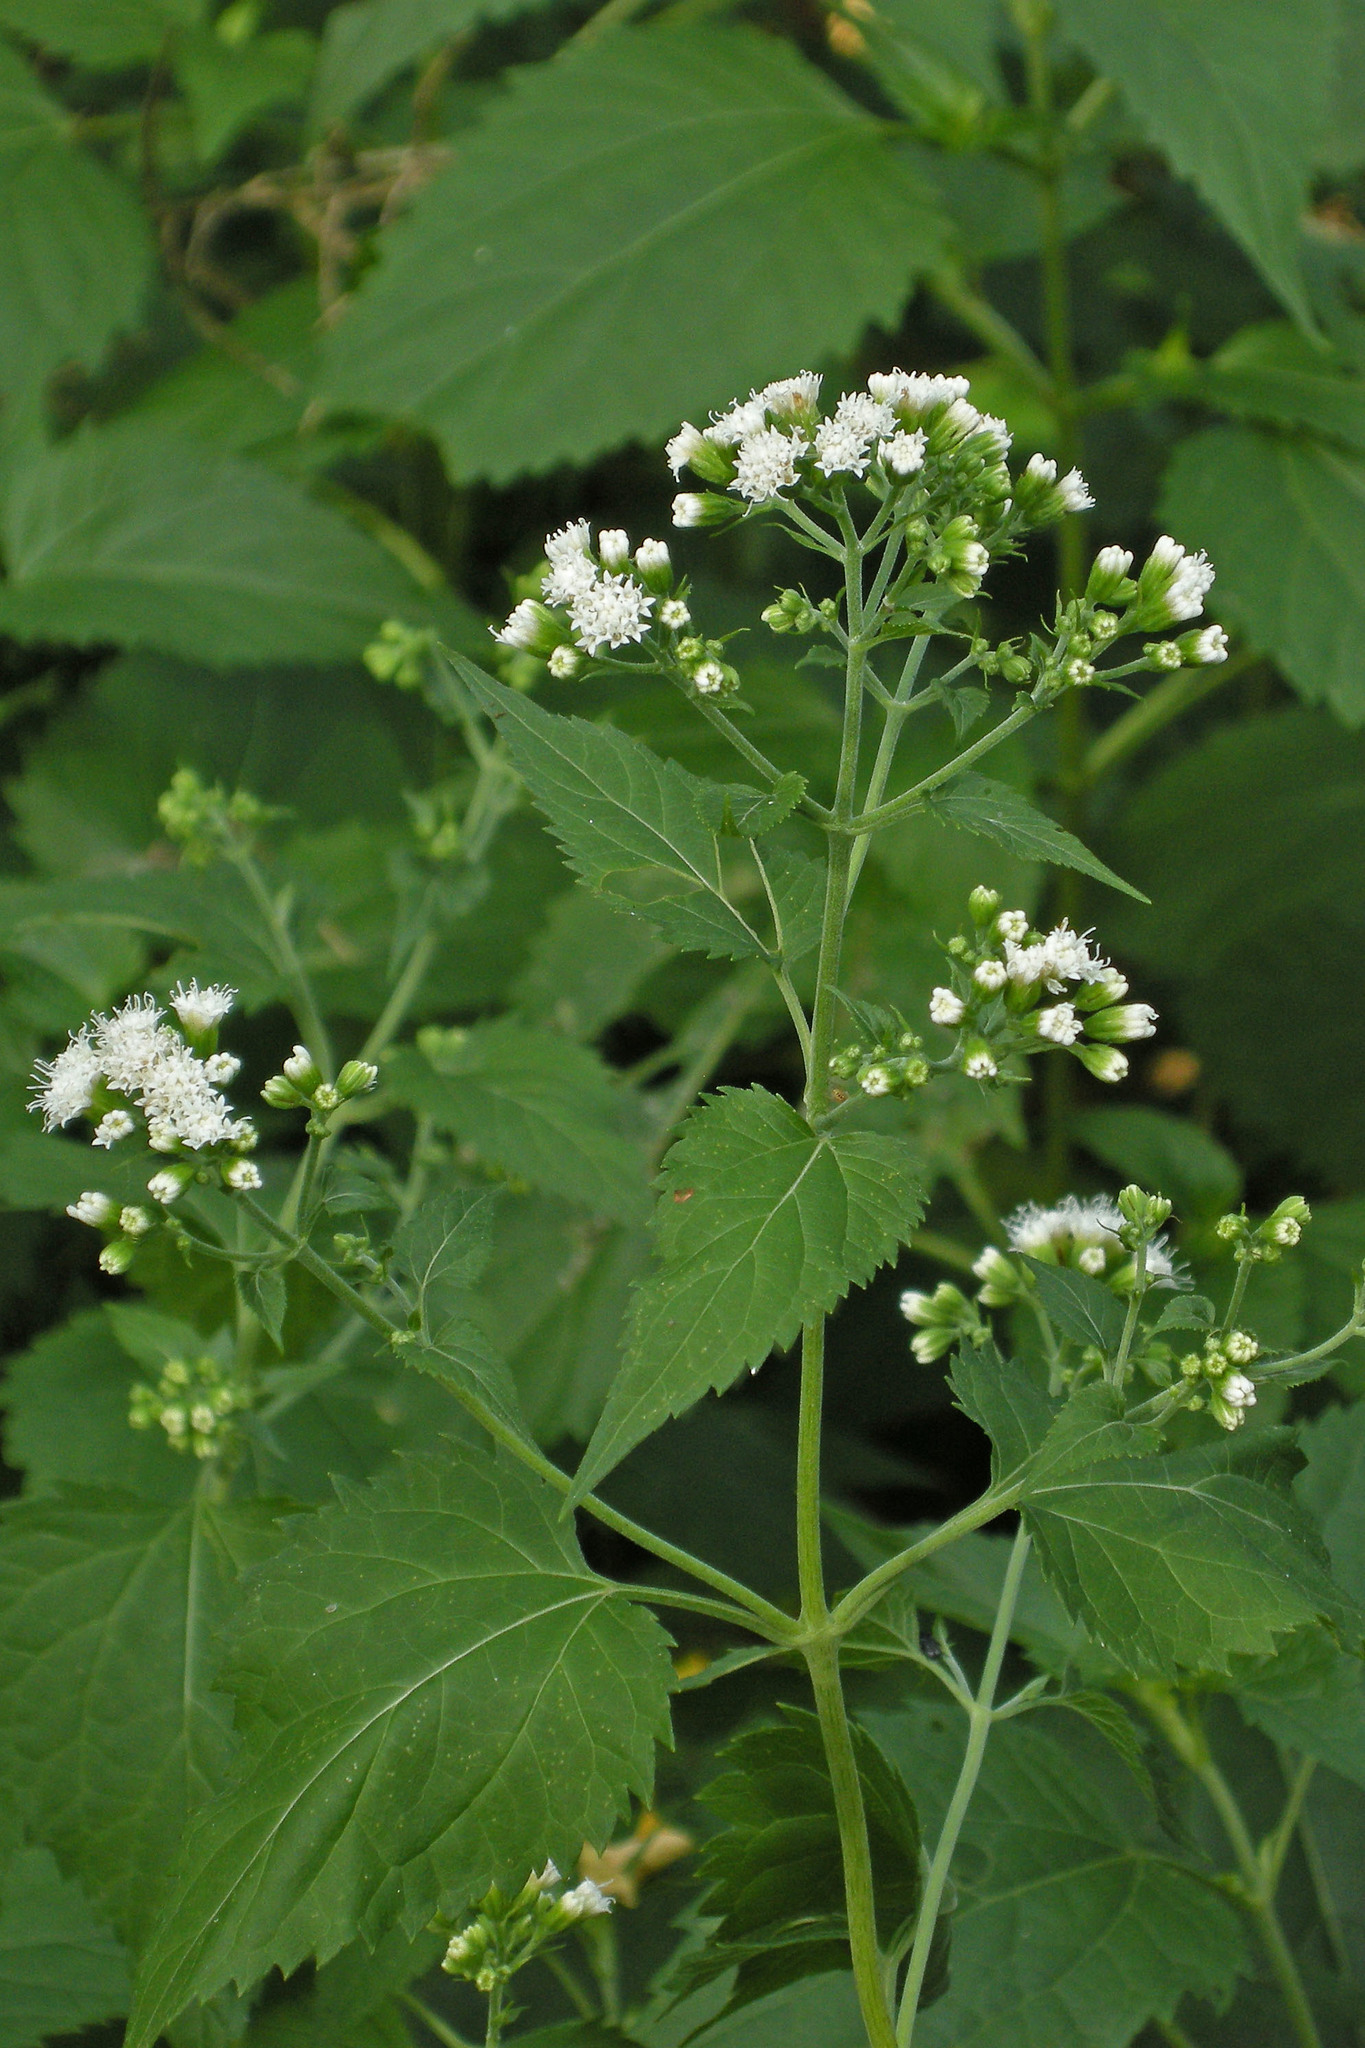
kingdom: Plantae
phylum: Tracheophyta
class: Magnoliopsida
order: Asterales
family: Asteraceae
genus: Ageratina
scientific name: Ageratina altissima
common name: White snakeroot
